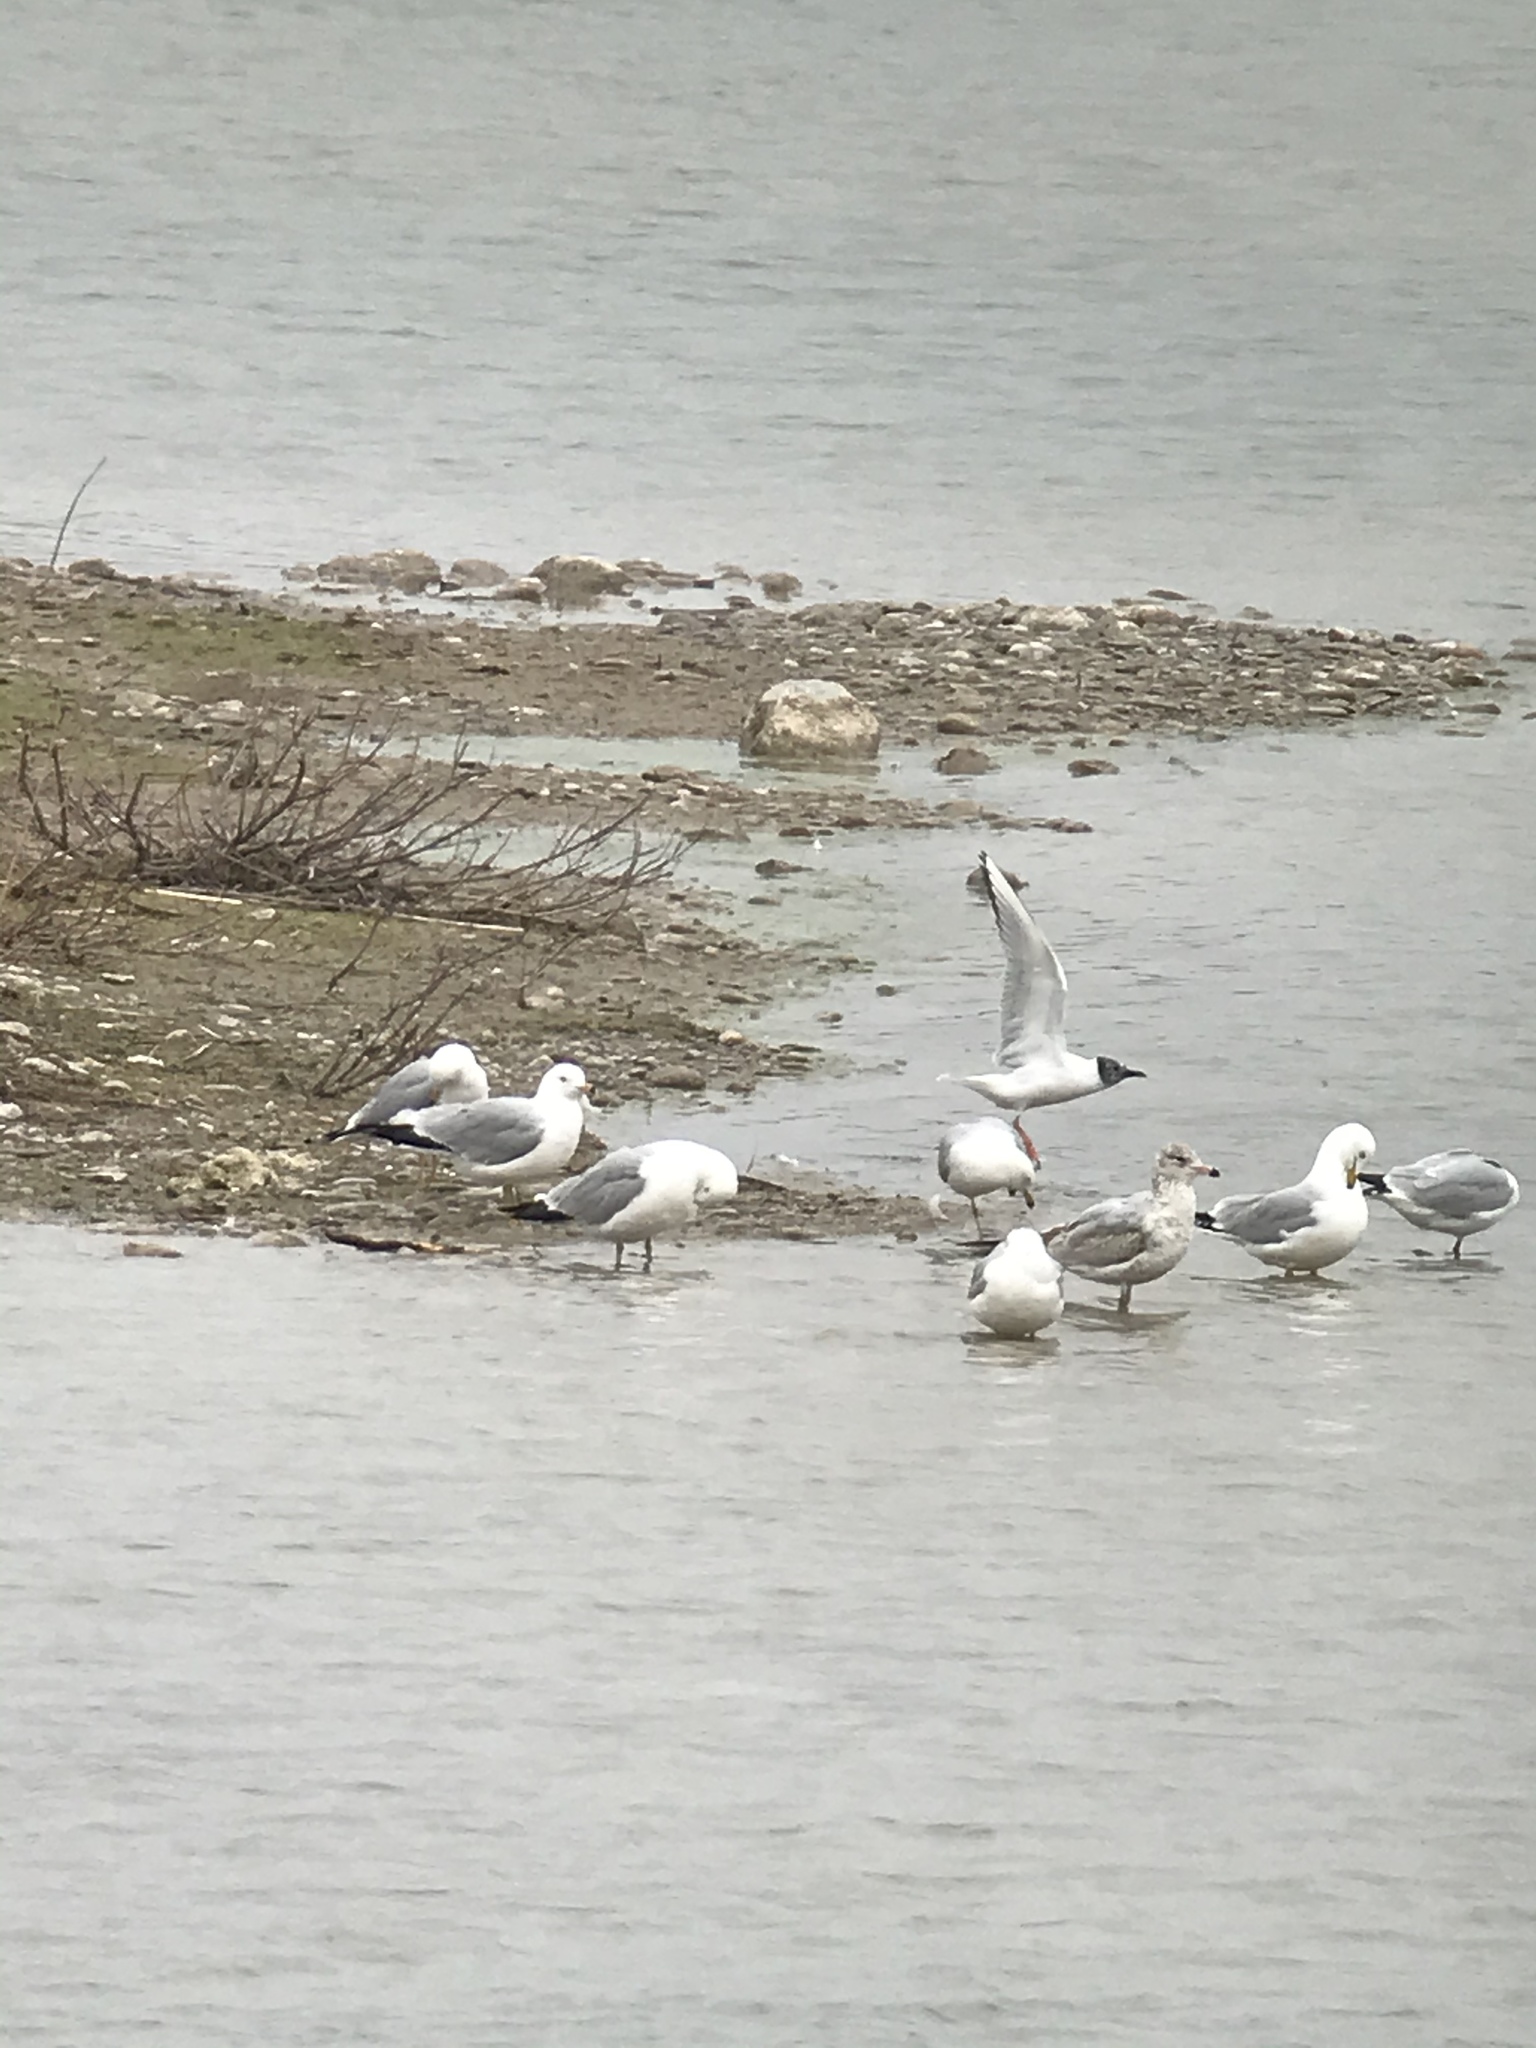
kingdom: Animalia
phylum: Chordata
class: Aves
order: Charadriiformes
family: Laridae
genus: Chroicocephalus
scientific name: Chroicocephalus philadelphia
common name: Bonaparte's gull
